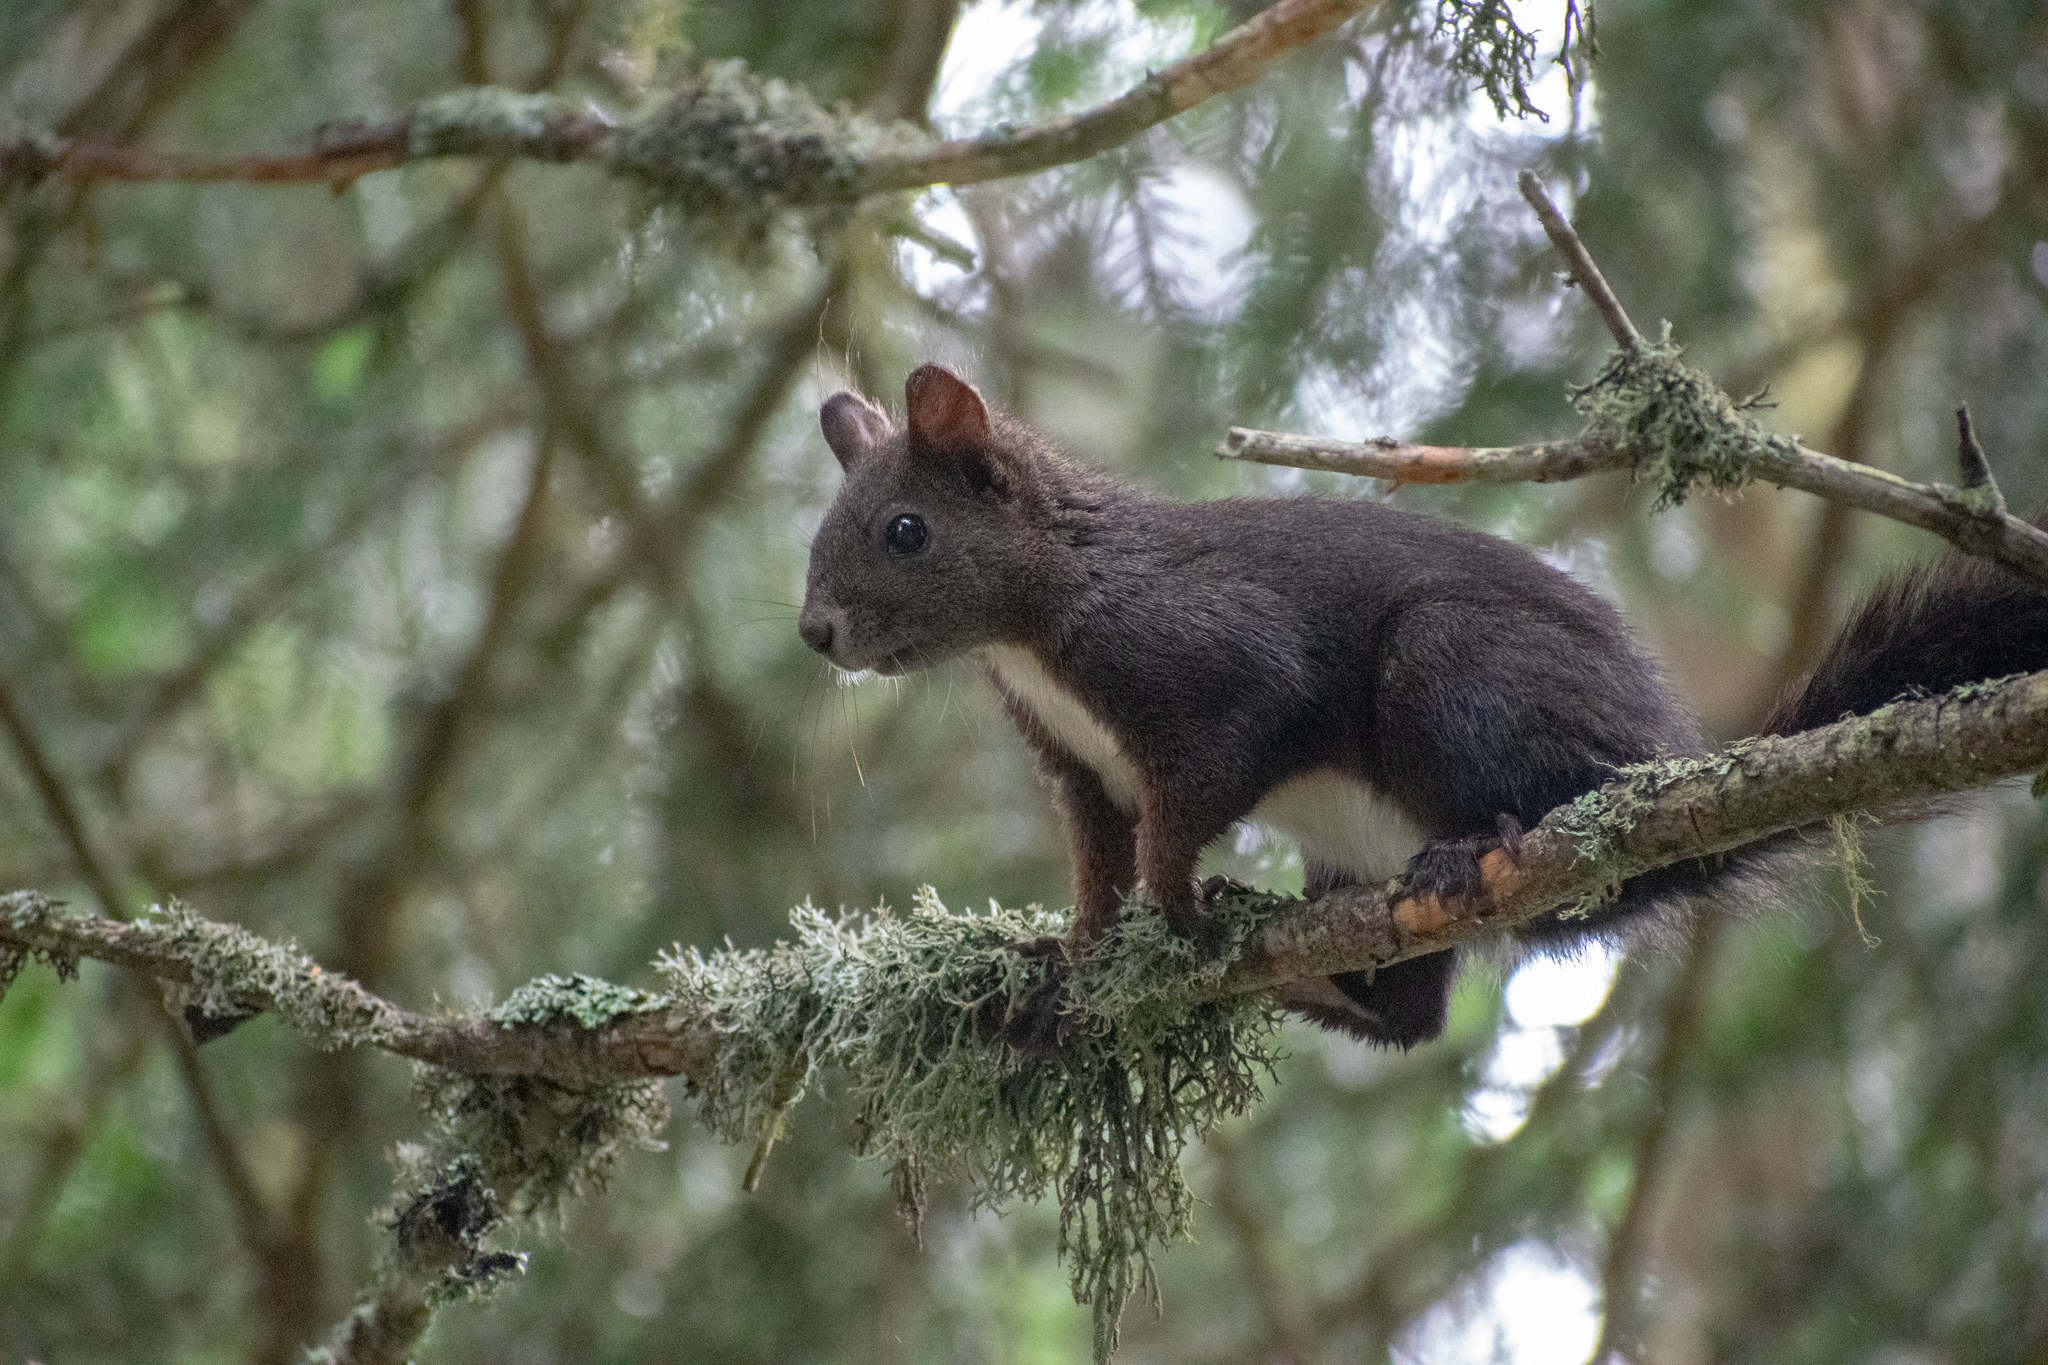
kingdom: Animalia
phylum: Chordata
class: Mammalia
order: Rodentia
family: Sciuridae
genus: Sciurus
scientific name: Sciurus vulgaris
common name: Eurasian red squirrel
